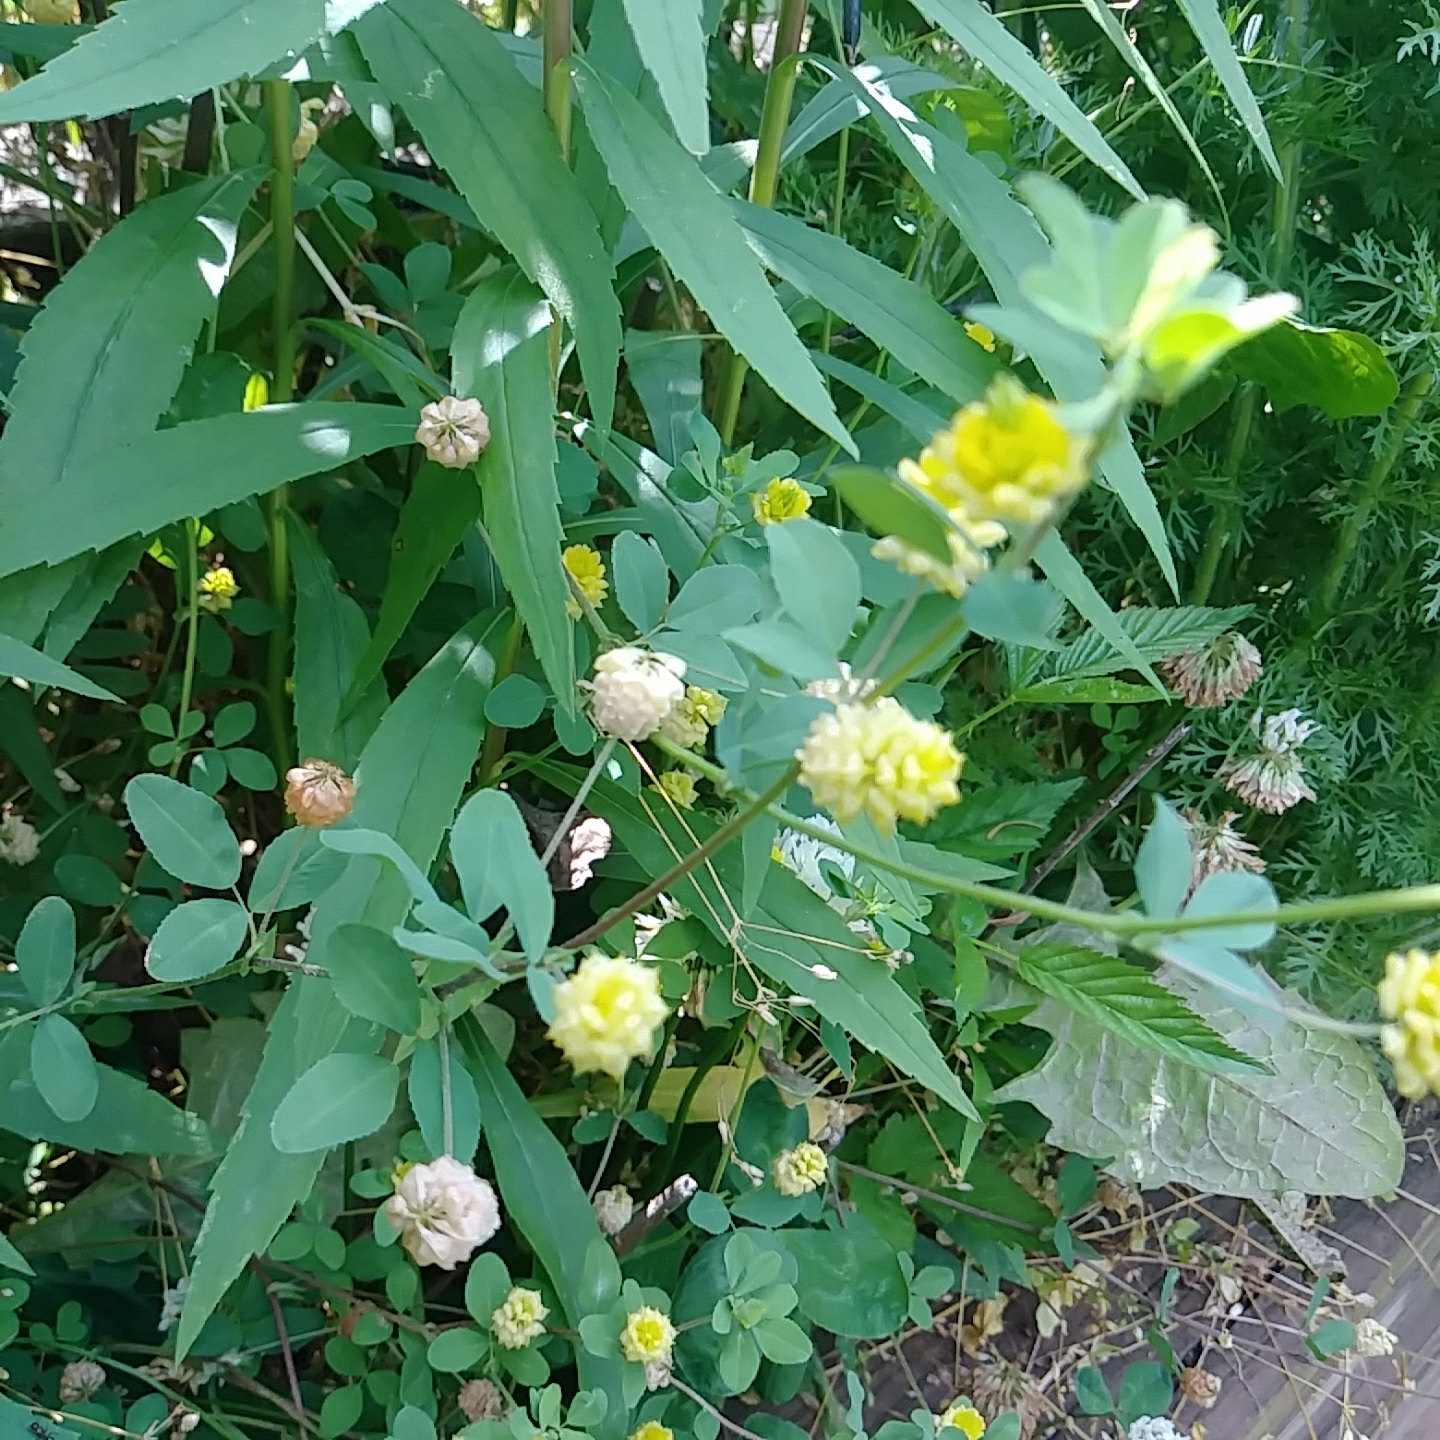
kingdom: Plantae
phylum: Tracheophyta
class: Magnoliopsida
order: Fabales
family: Fabaceae
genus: Trifolium
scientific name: Trifolium campestre
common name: Field clover
